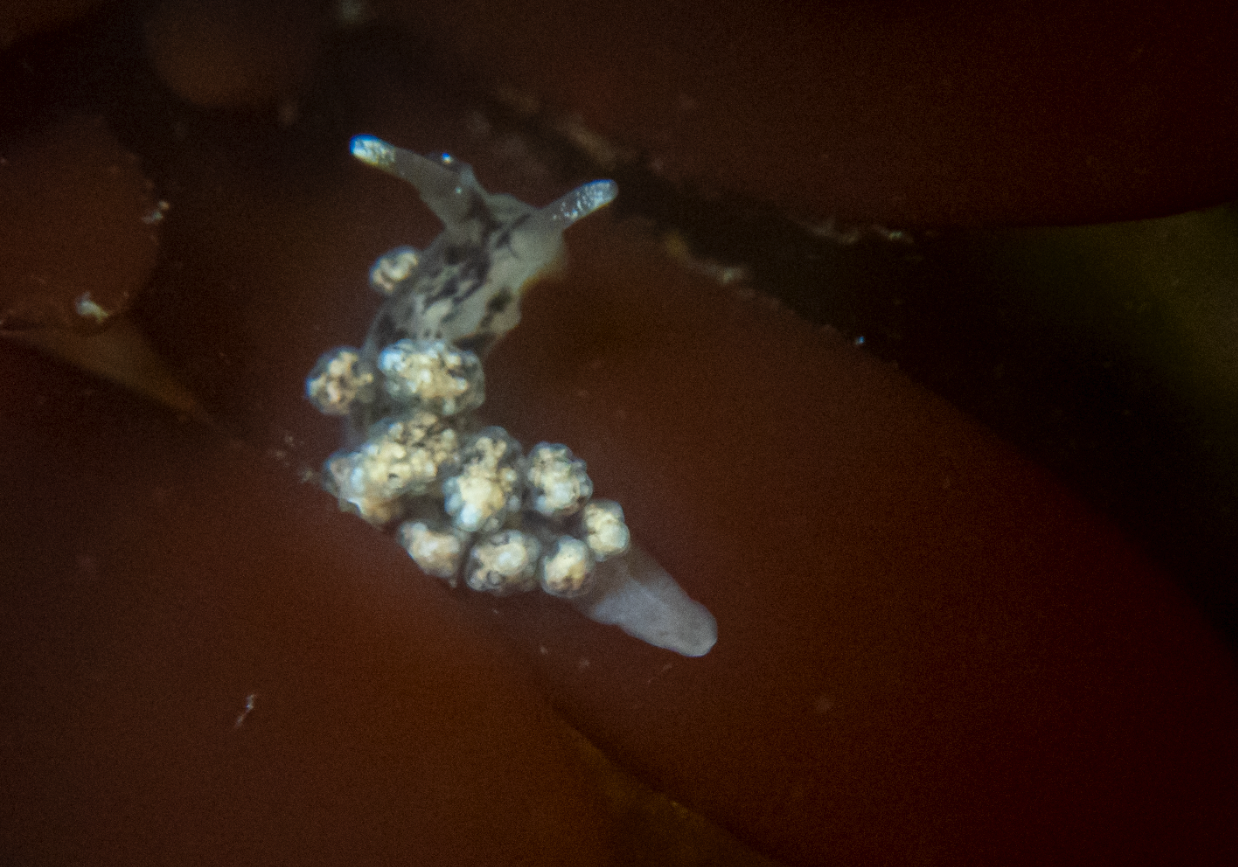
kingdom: Animalia
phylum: Mollusca
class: Gastropoda
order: Nudibranchia
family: Dotidae
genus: Doto
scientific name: Doto kya
